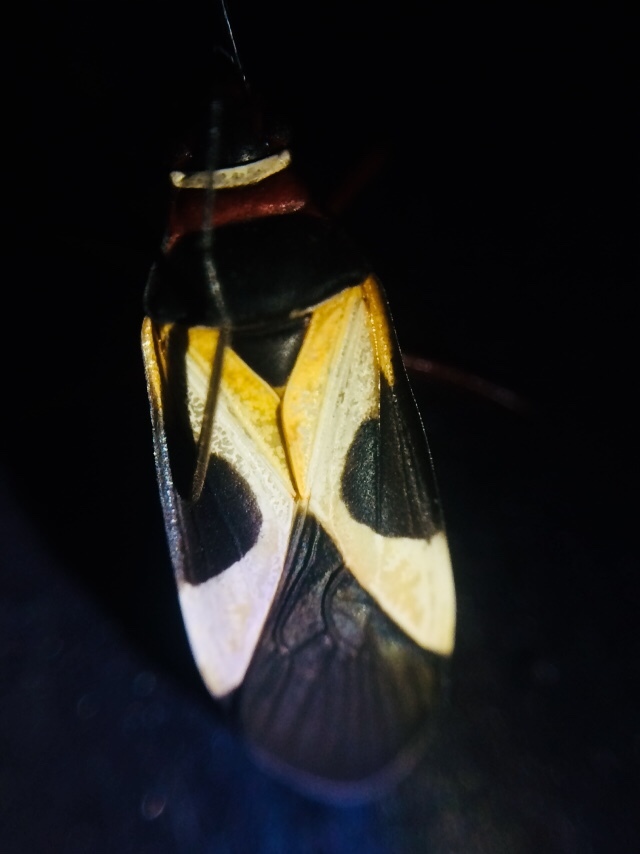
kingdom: Animalia
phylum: Arthropoda
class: Insecta
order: Hemiptera
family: Pyrrhocoridae
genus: Dysdercus
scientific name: Dysdercus concinnus
